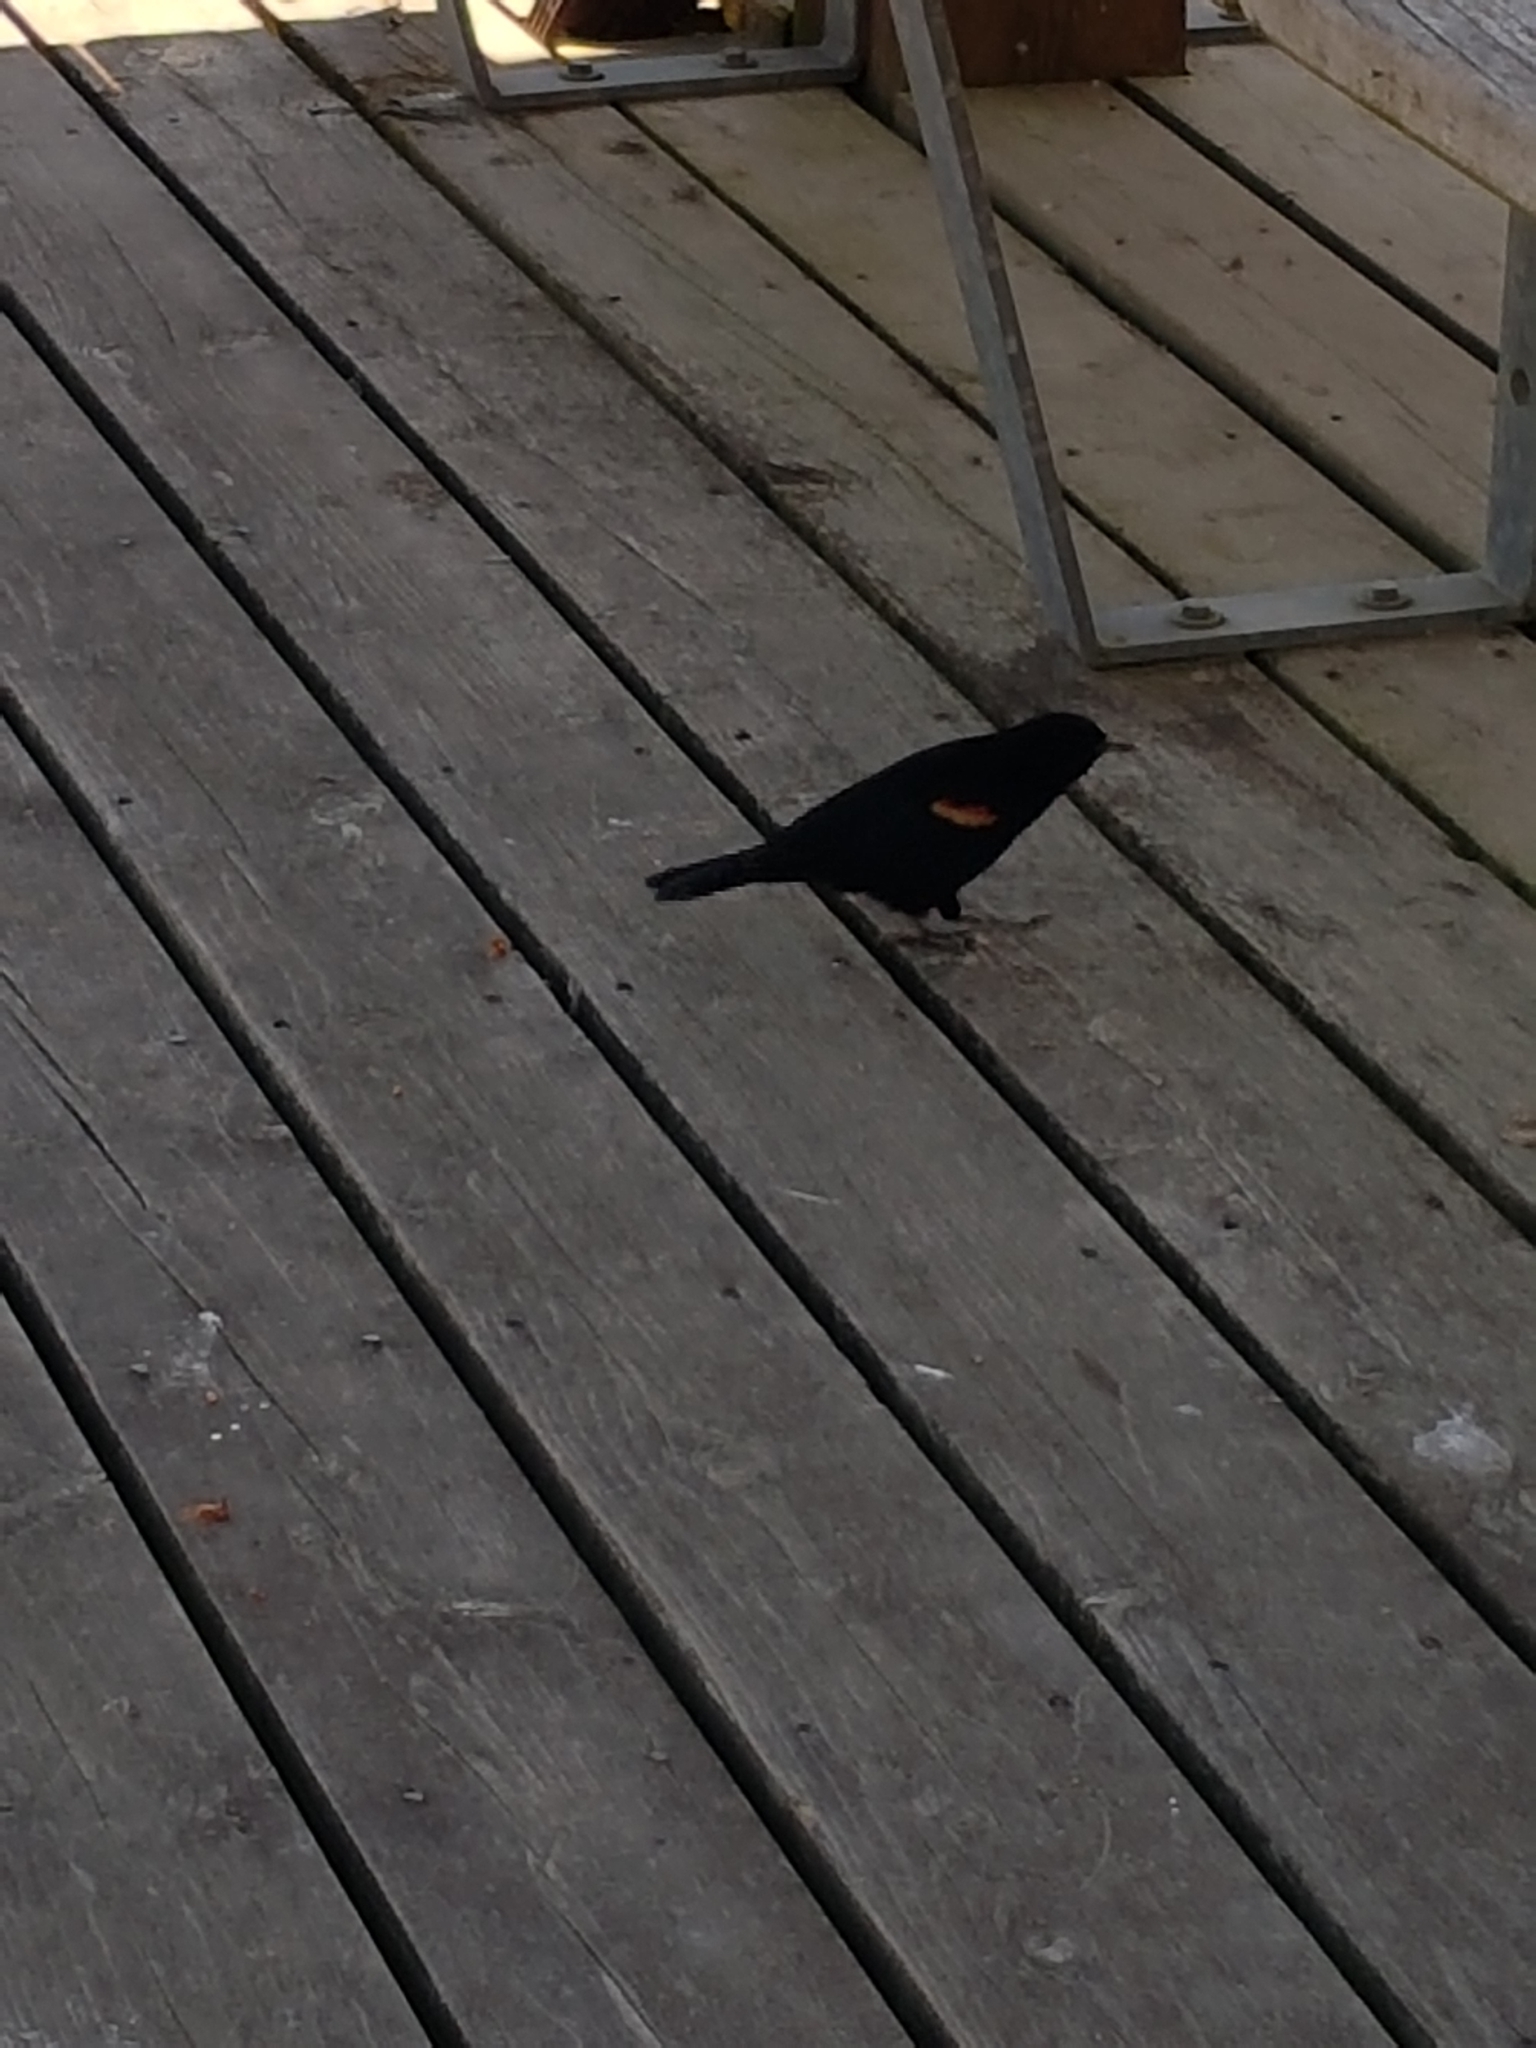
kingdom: Animalia
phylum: Chordata
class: Aves
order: Passeriformes
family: Icteridae
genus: Agelaius
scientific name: Agelaius phoeniceus
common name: Red-winged blackbird
